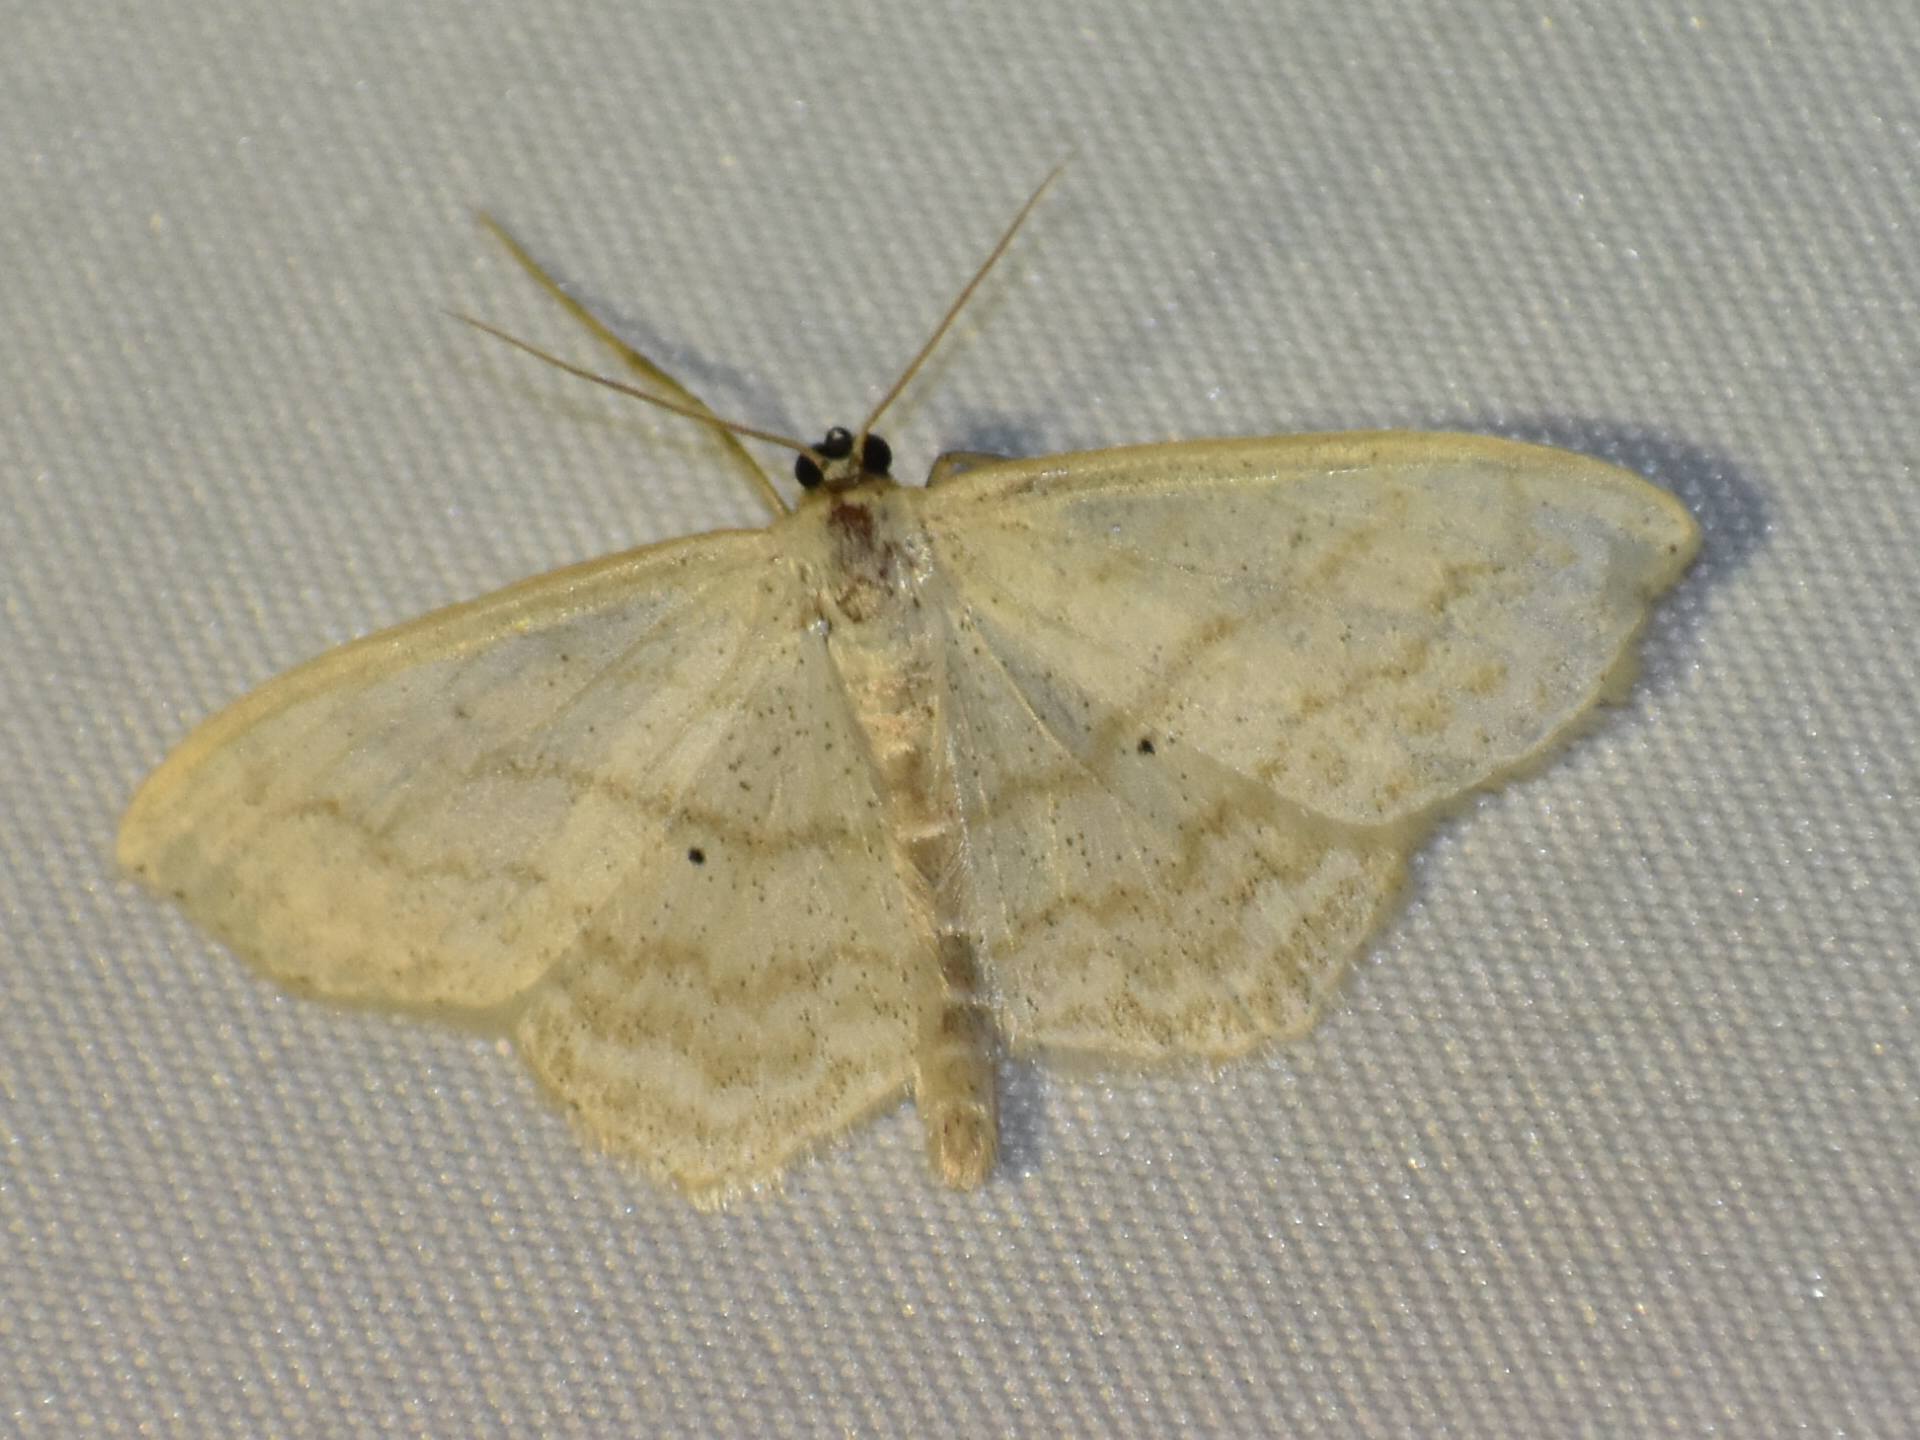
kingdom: Animalia
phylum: Arthropoda
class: Insecta
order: Lepidoptera
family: Geometridae
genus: Scopula
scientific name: Scopula limboundata
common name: Large lace border
